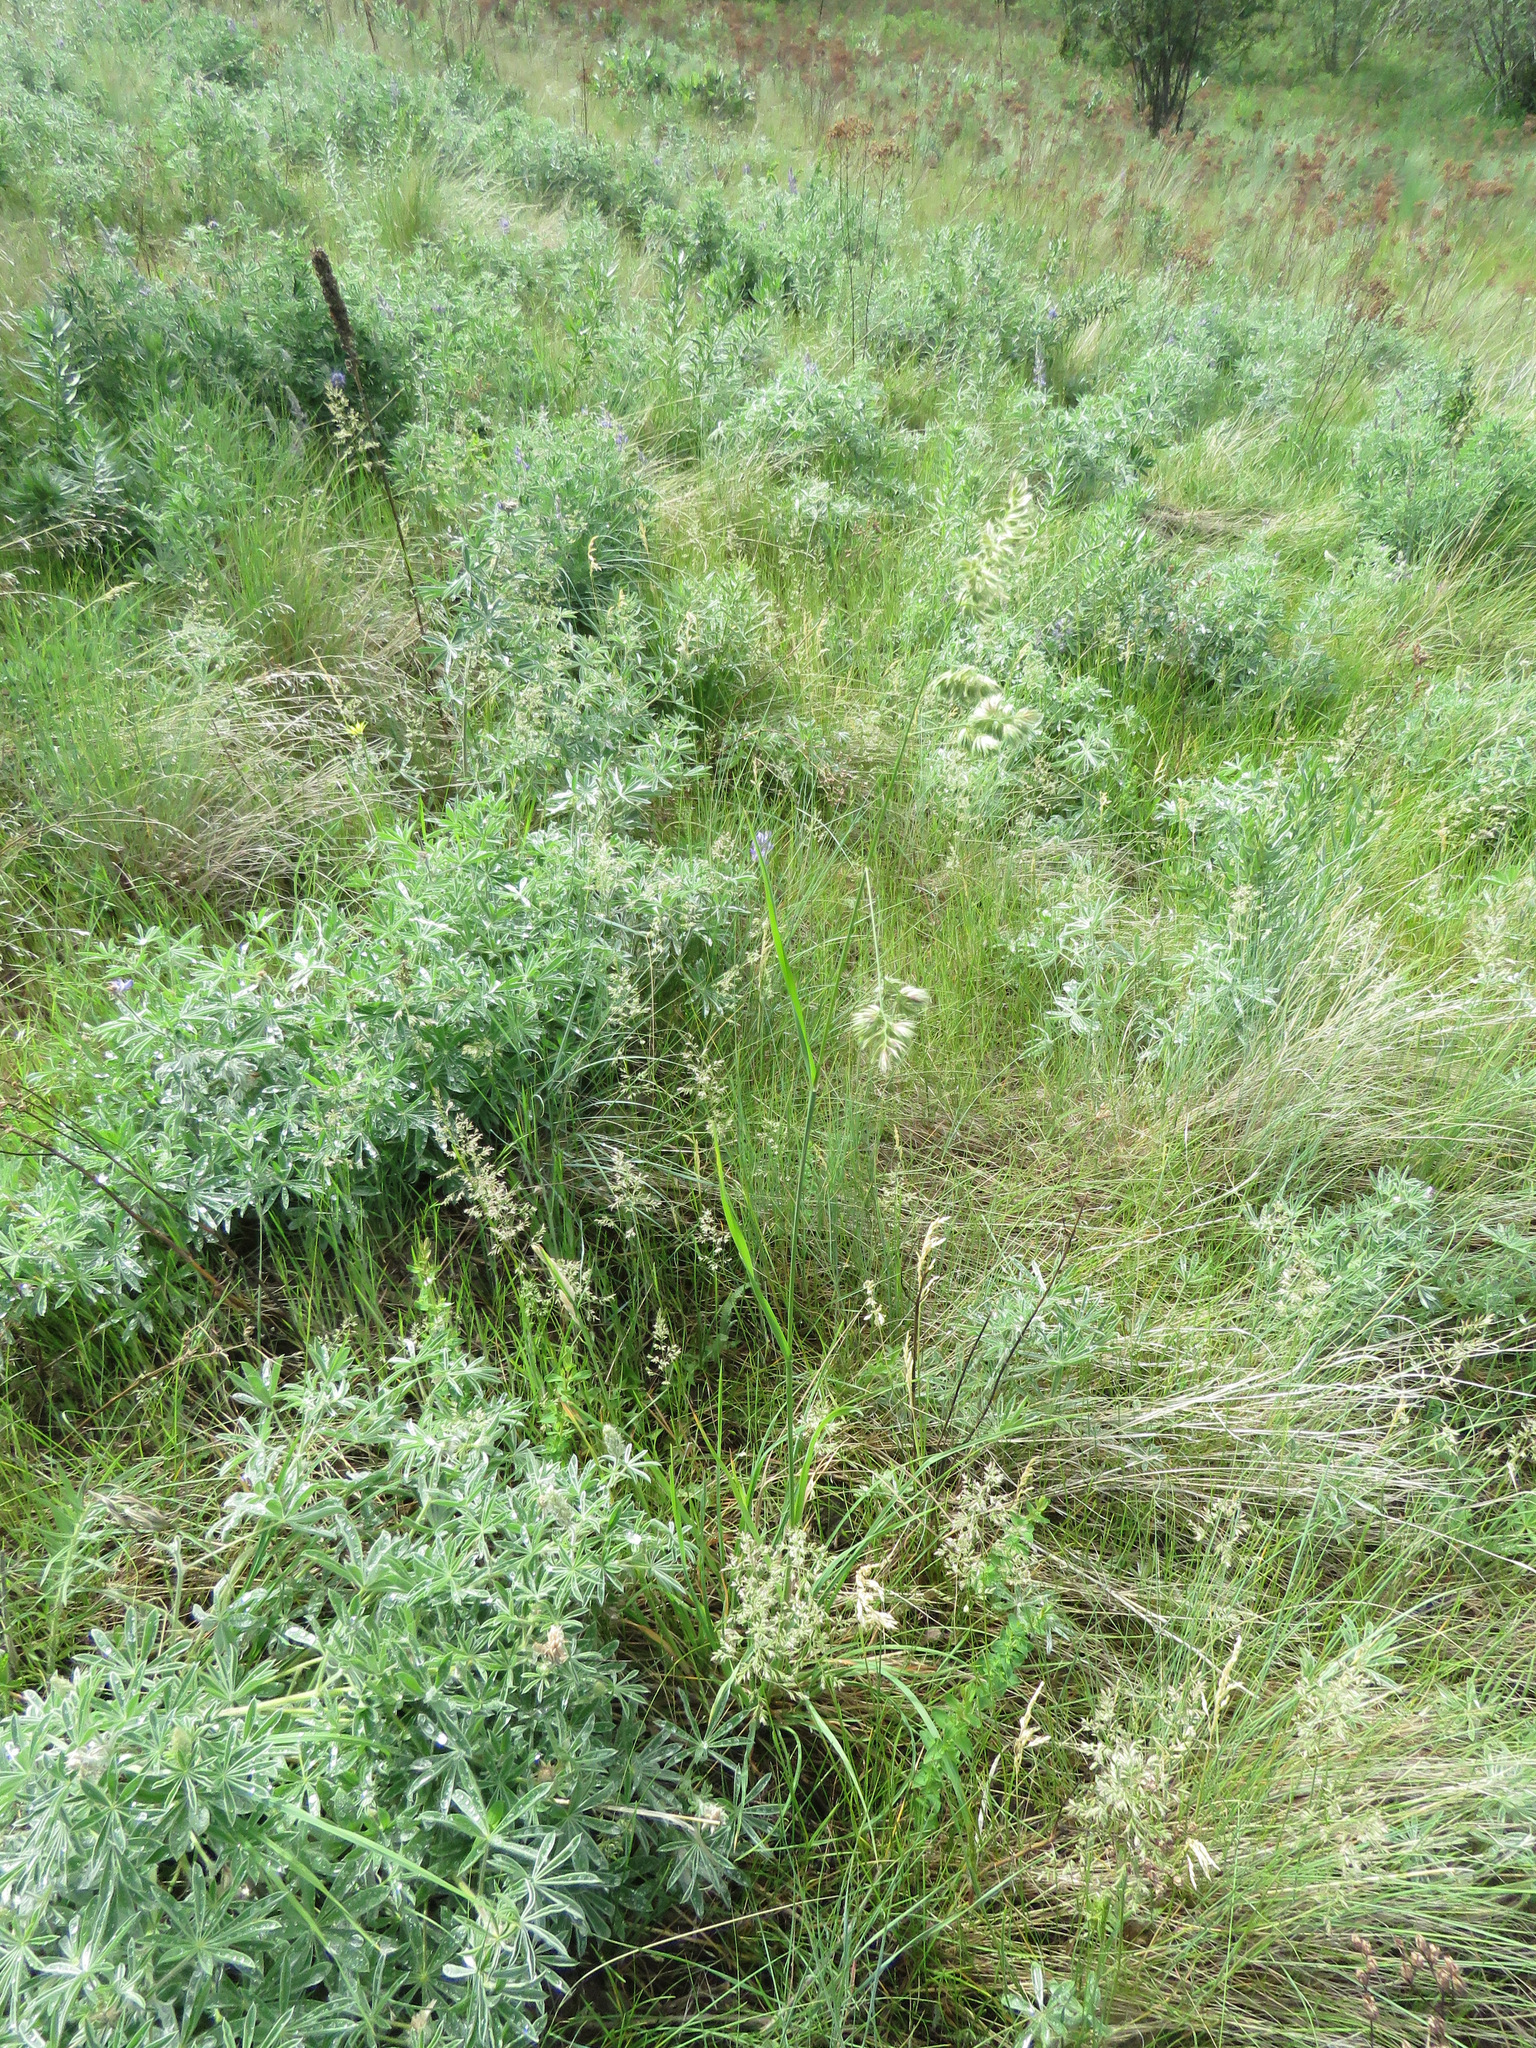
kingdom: Plantae
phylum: Tracheophyta
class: Liliopsida
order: Poales
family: Poaceae
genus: Dactylis
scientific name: Dactylis glomerata
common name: Orchardgrass
